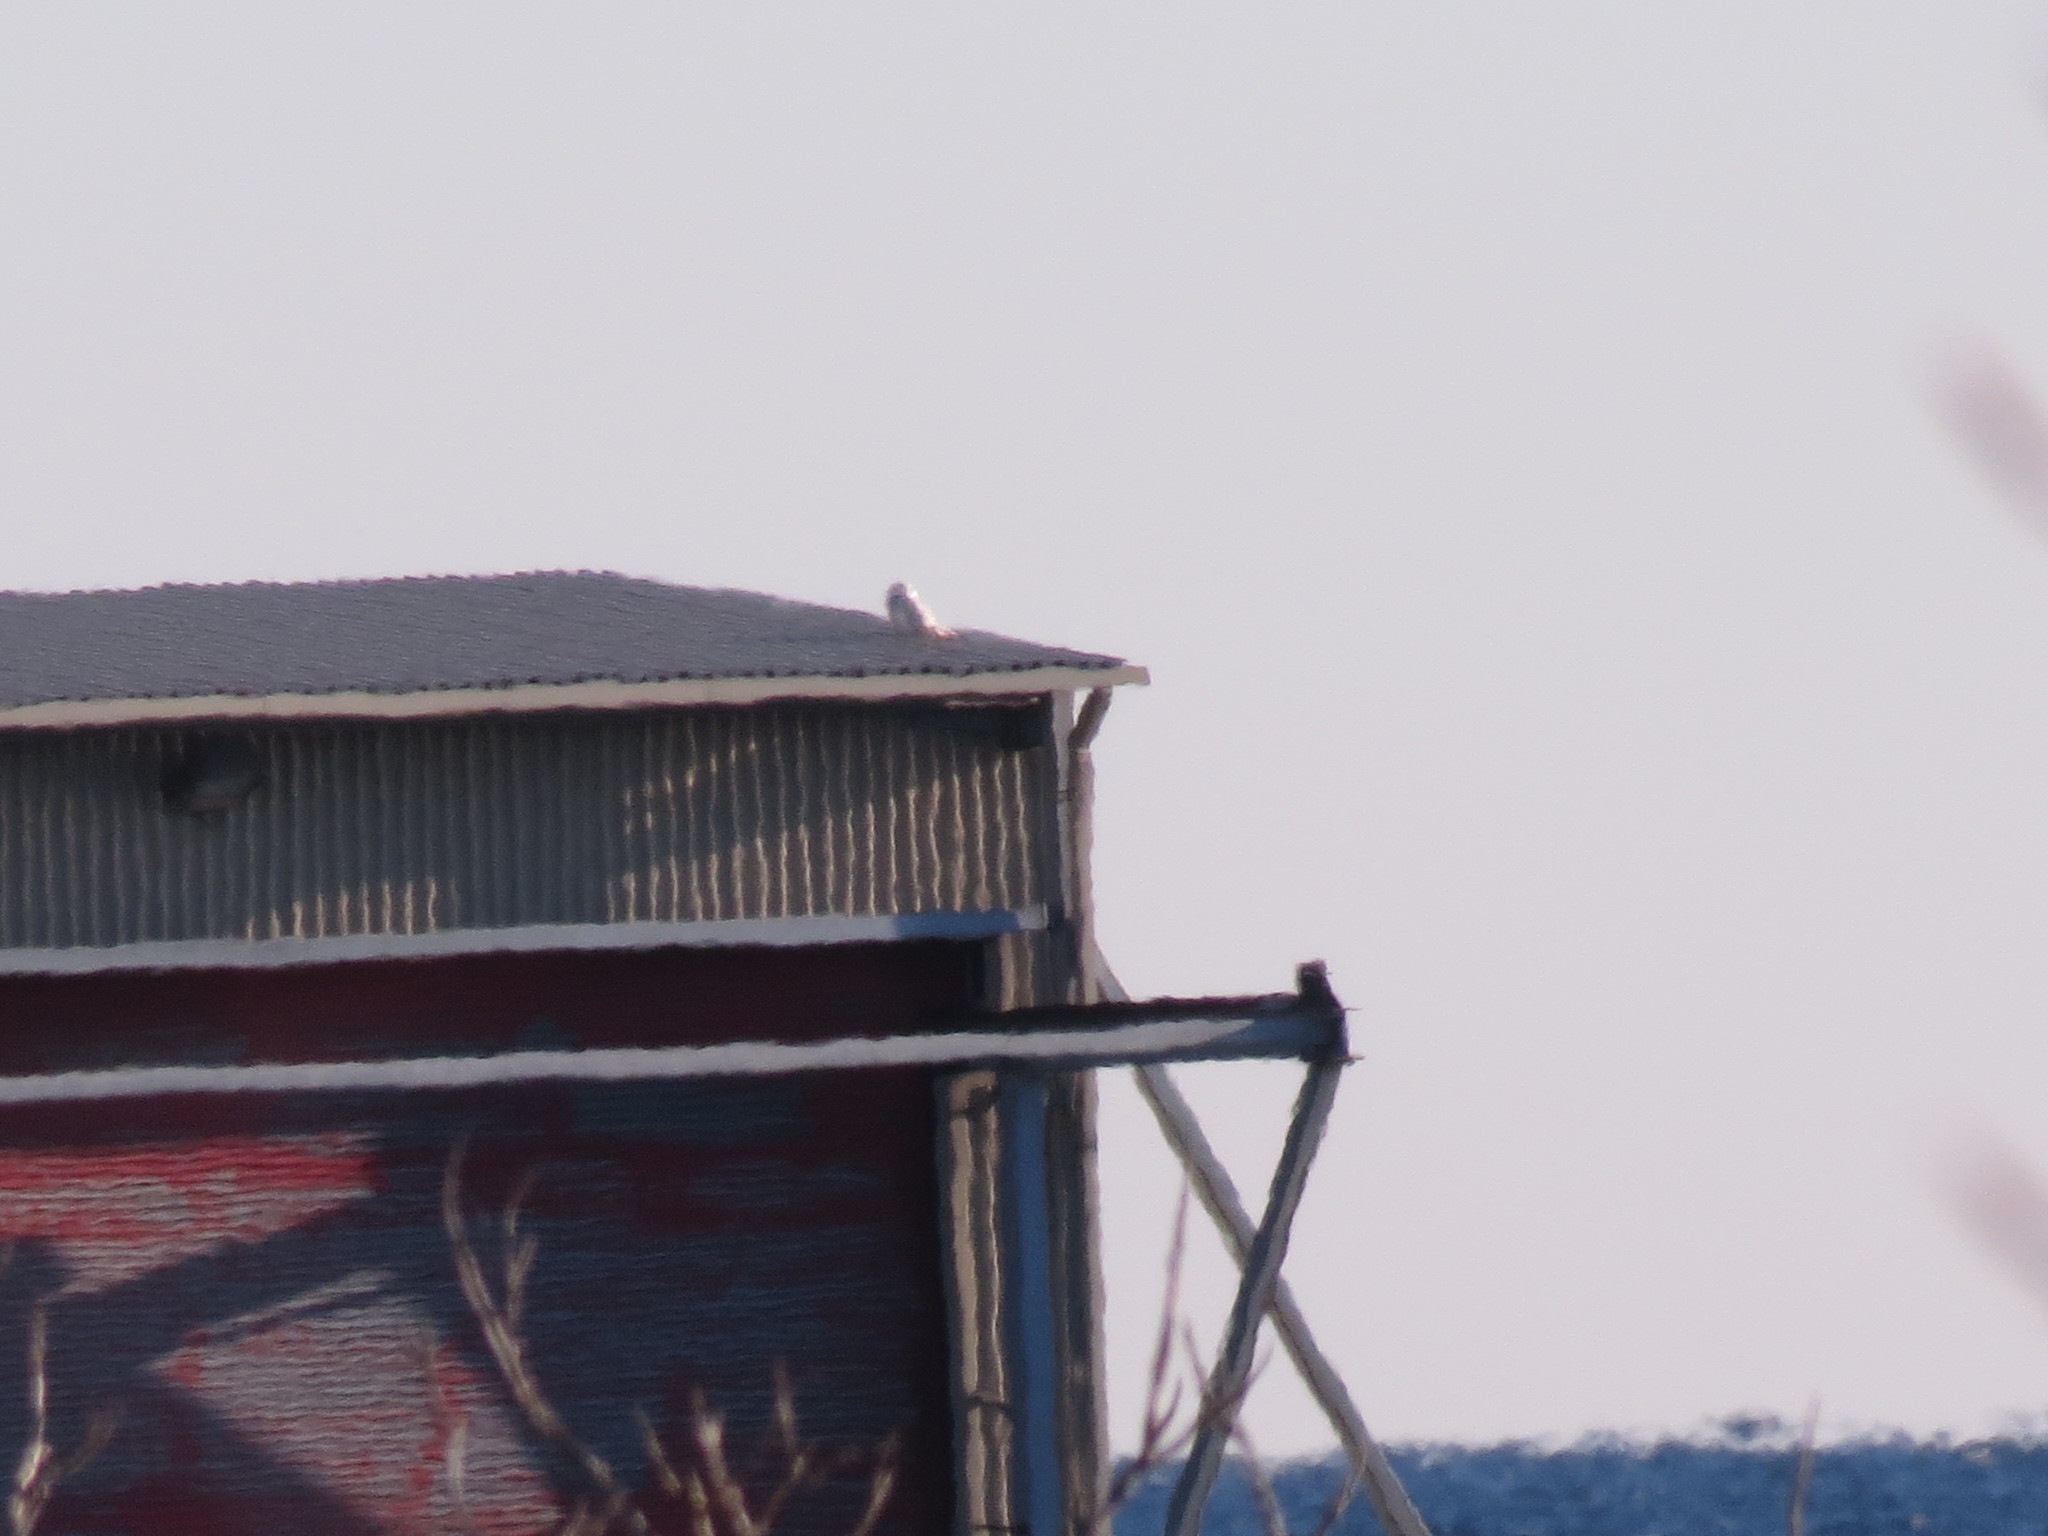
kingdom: Animalia
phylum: Chordata
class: Aves
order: Strigiformes
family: Strigidae
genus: Bubo
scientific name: Bubo scandiacus
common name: Snowy owl
